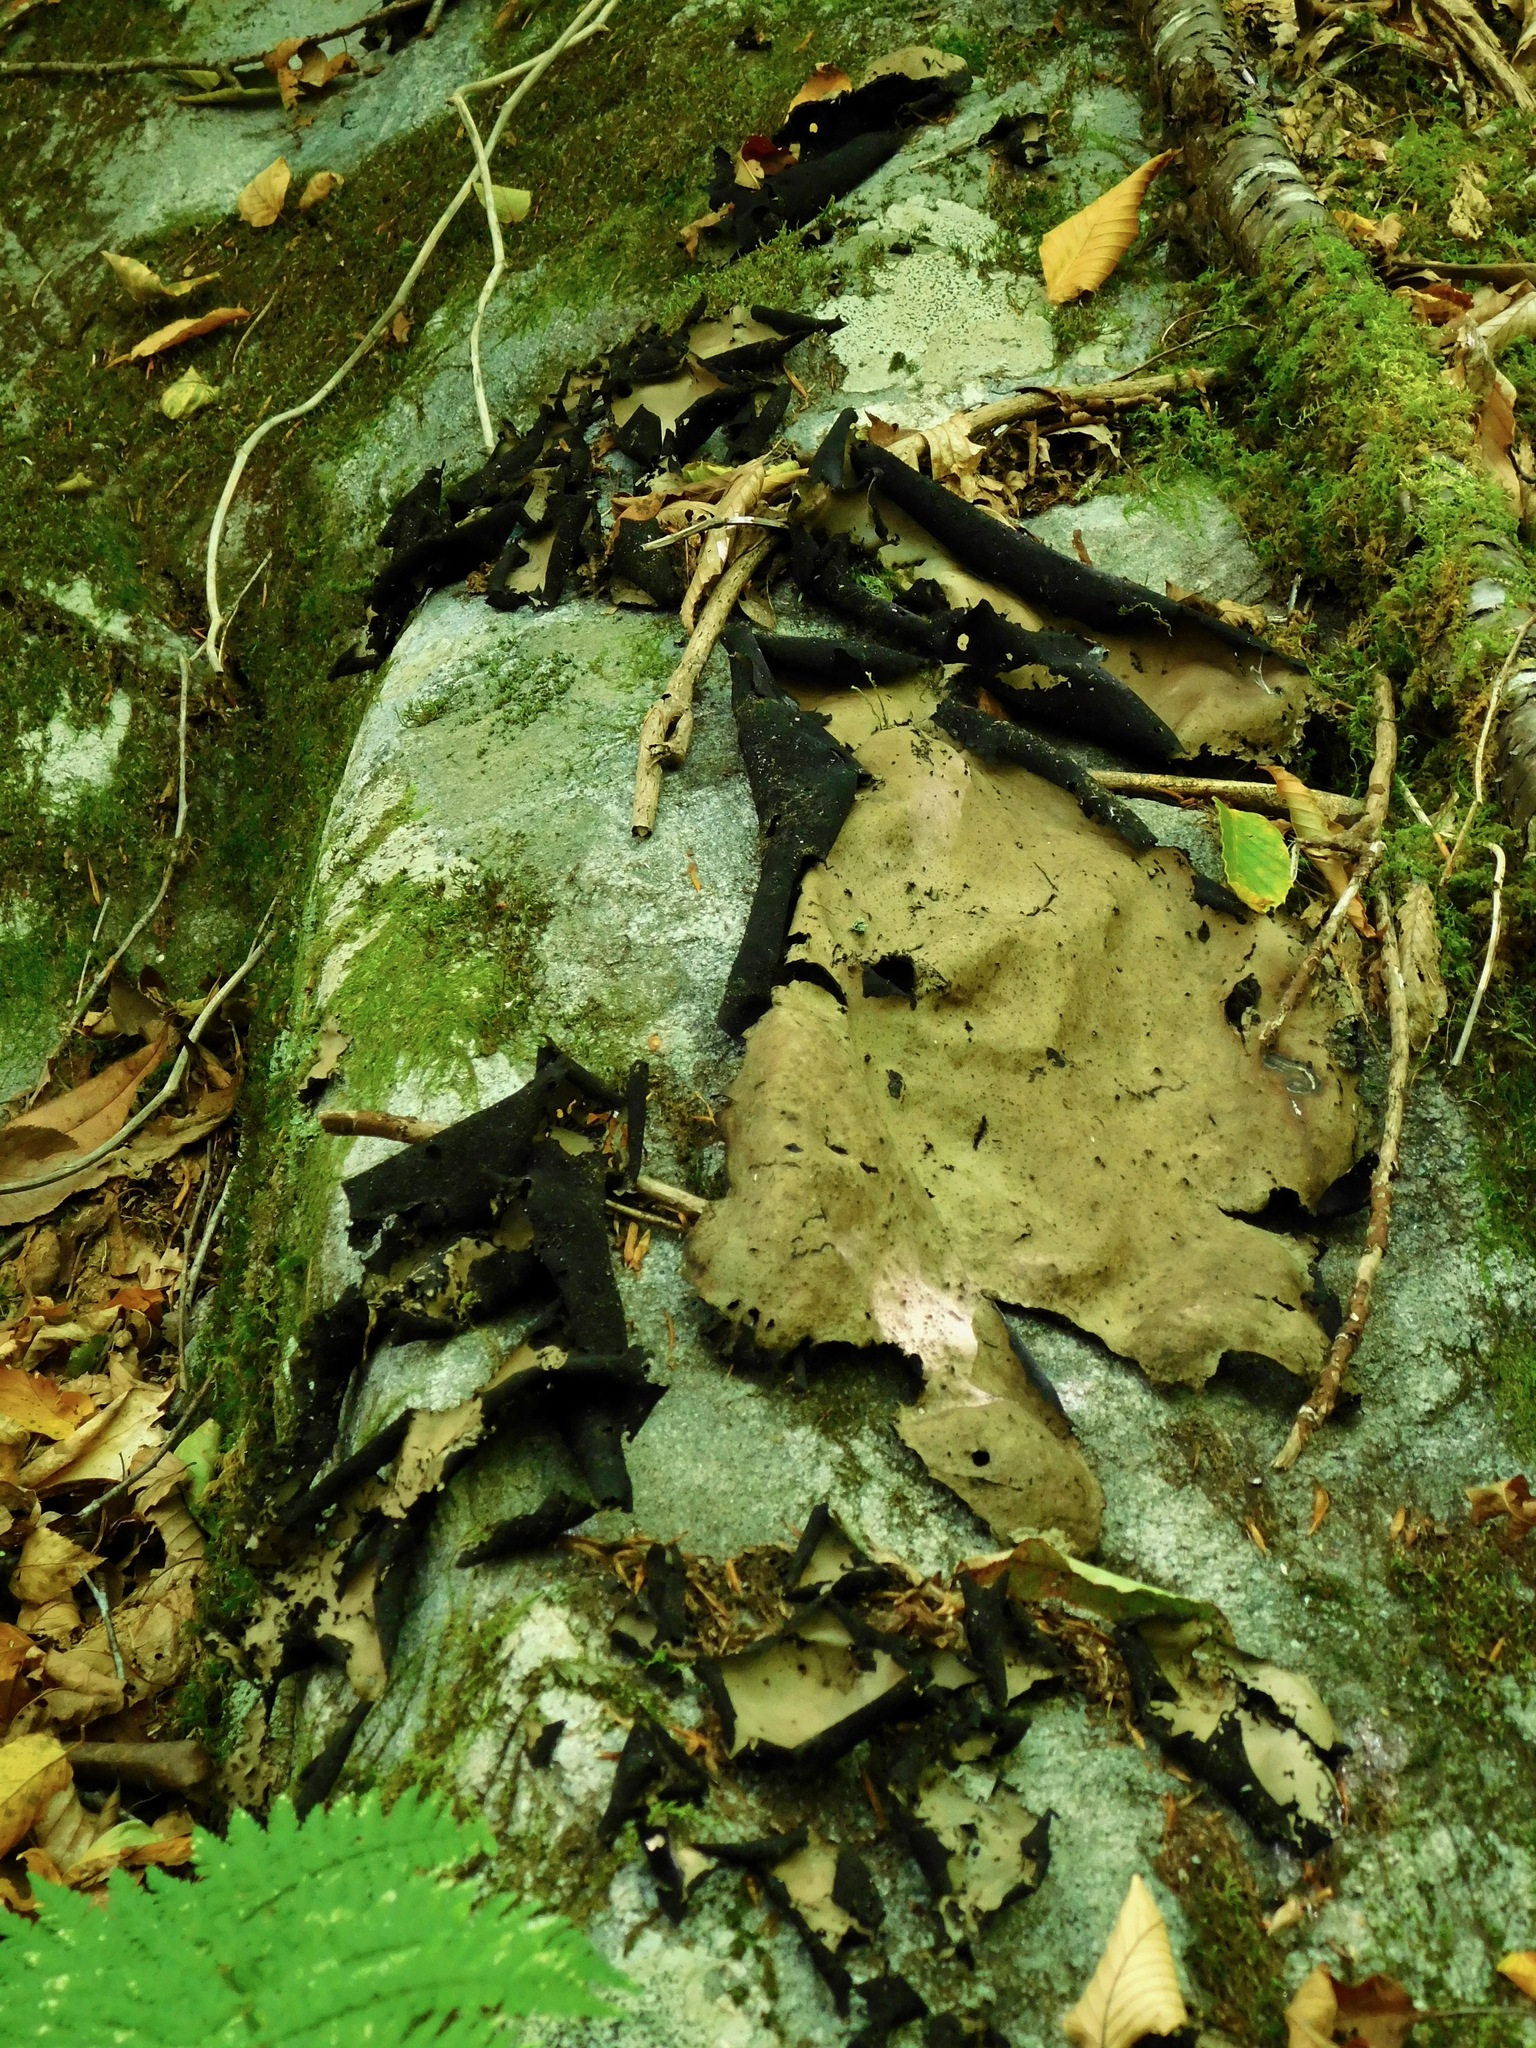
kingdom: Fungi
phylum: Ascomycota
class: Lecanoromycetes
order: Umbilicariales
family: Umbilicariaceae
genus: Umbilicaria
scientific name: Umbilicaria mammulata
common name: Smooth rock tripe
